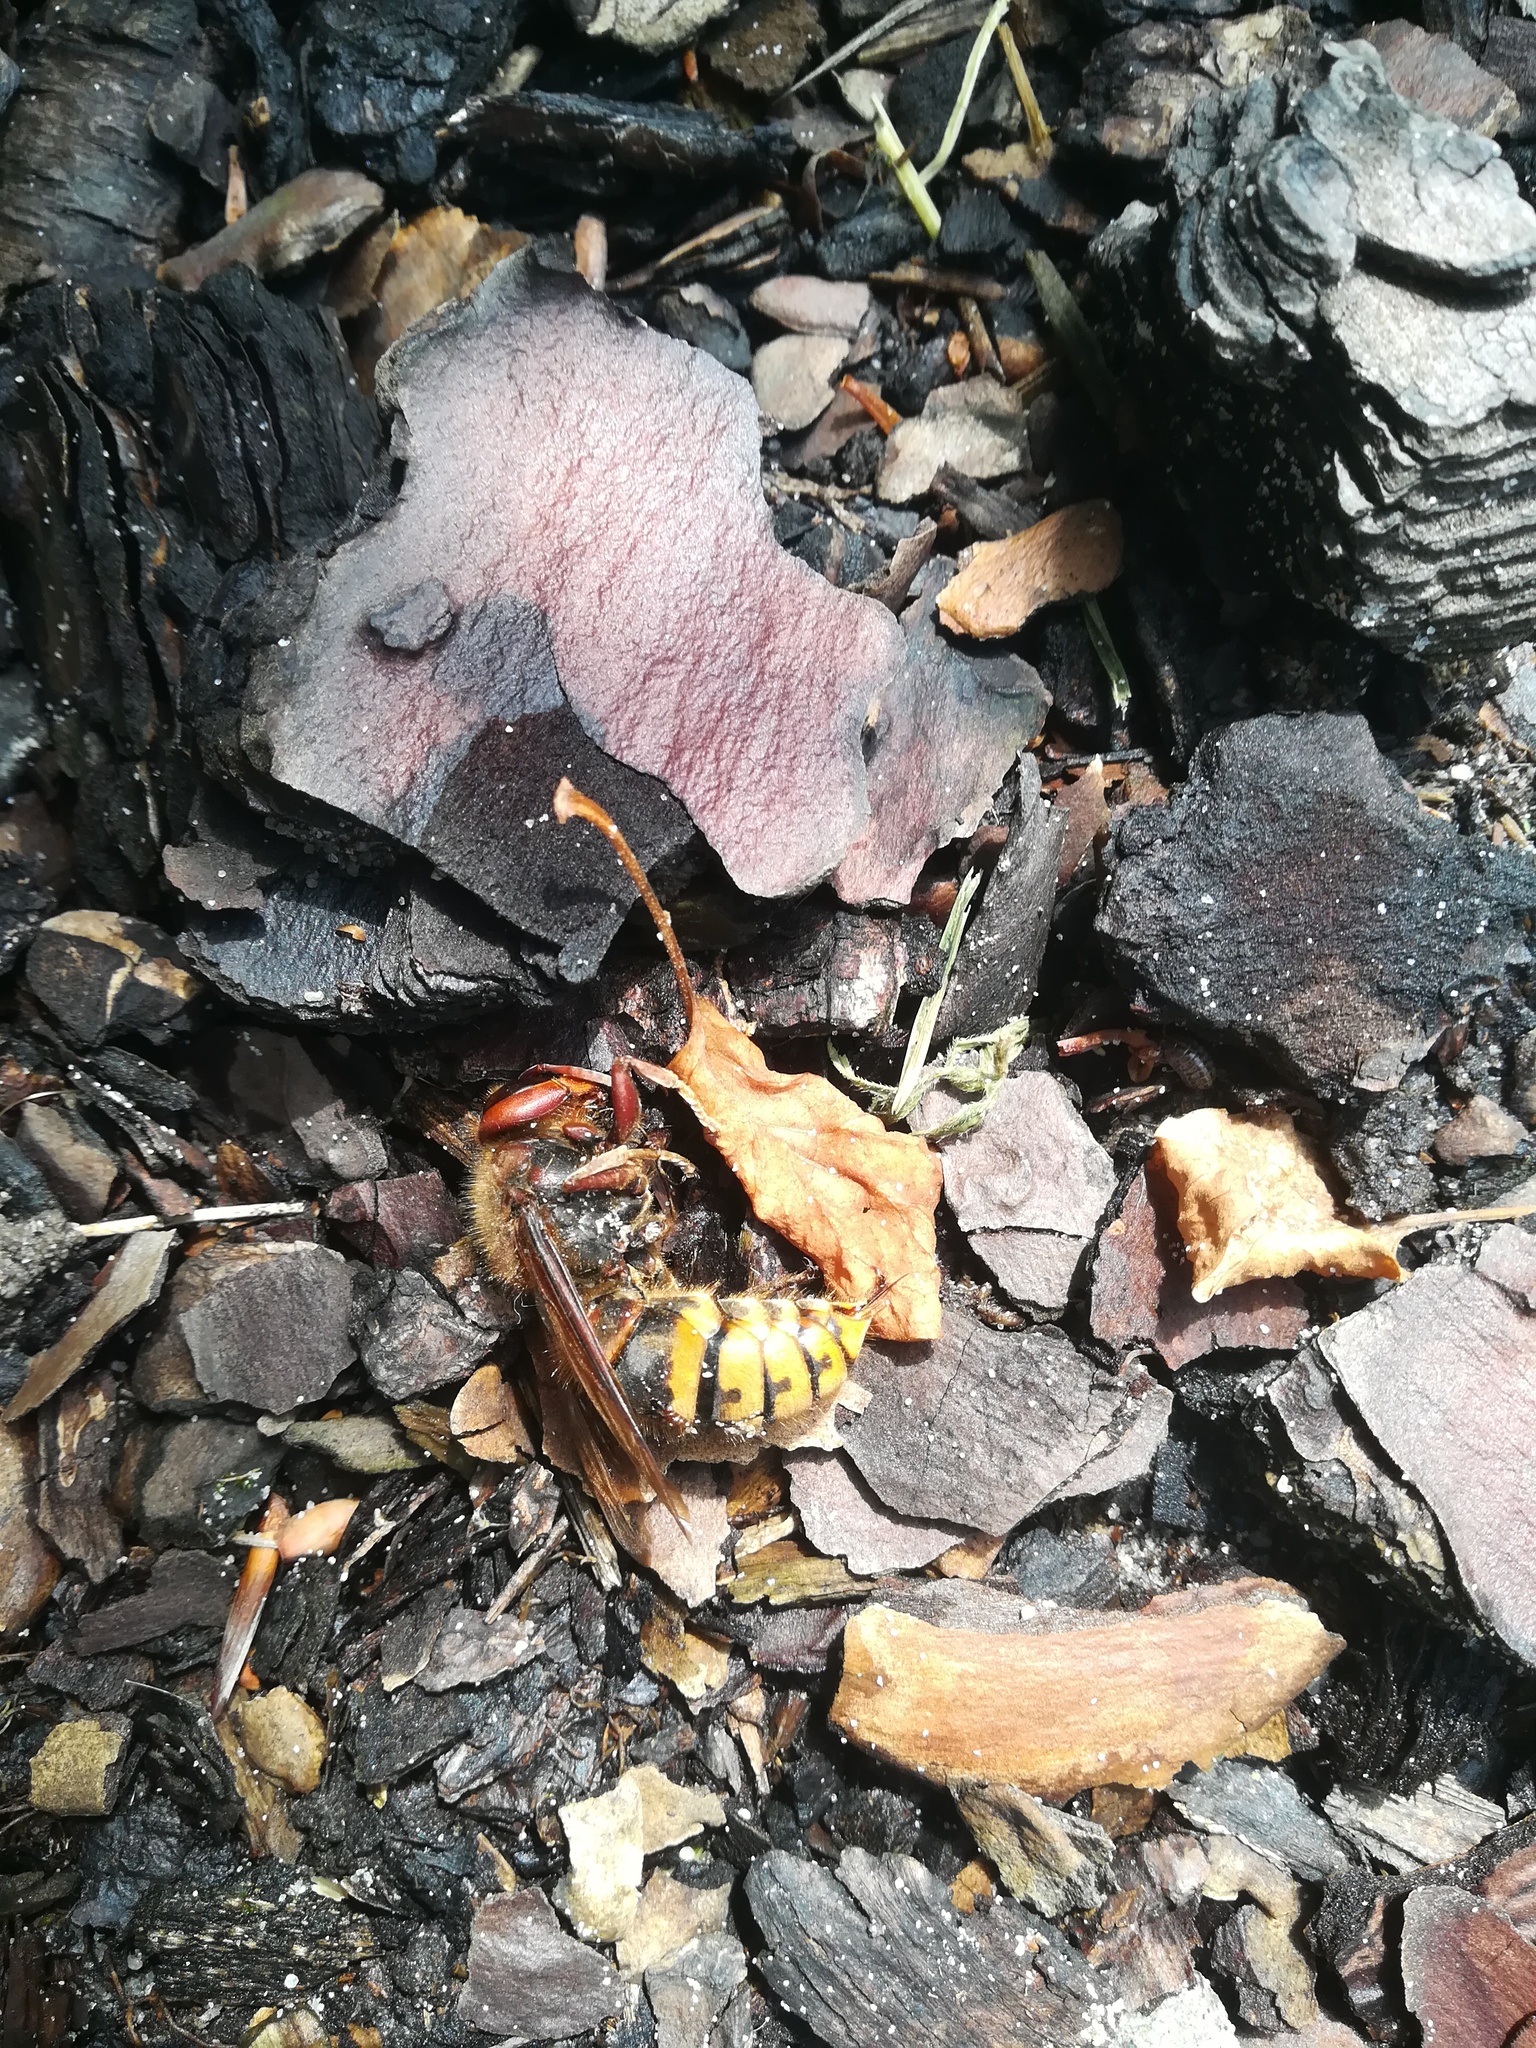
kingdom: Animalia
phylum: Arthropoda
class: Insecta
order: Hymenoptera
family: Vespidae
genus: Vespa
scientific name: Vespa crabro
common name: Hornet
